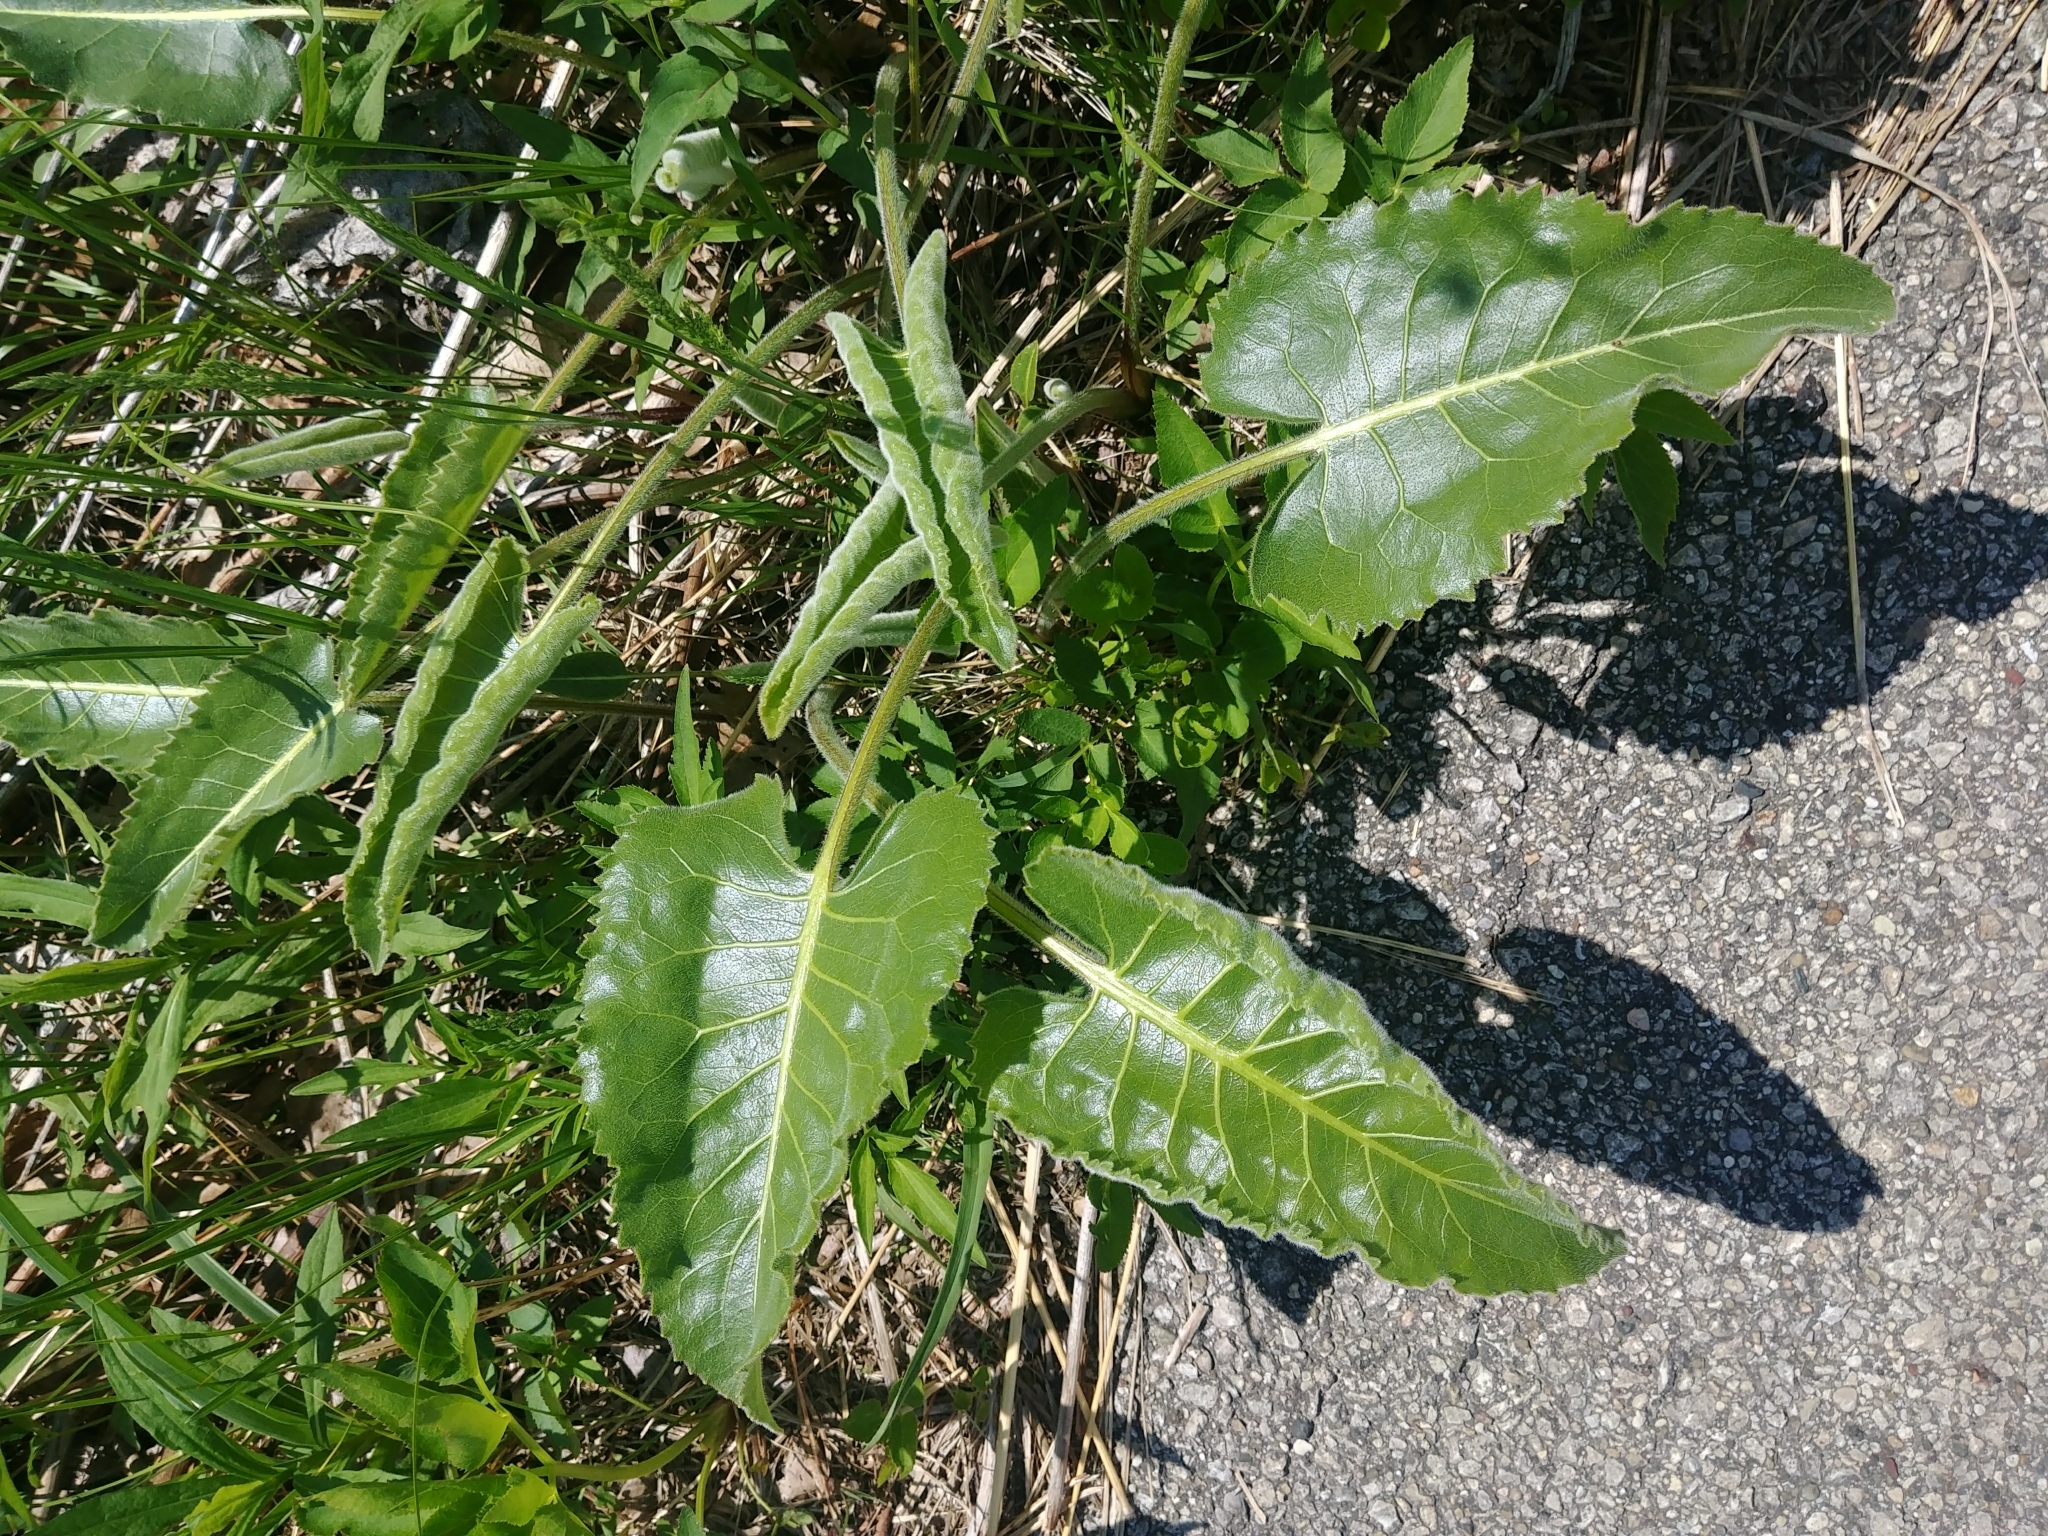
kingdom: Plantae
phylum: Tracheophyta
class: Magnoliopsida
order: Asterales
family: Asteraceae
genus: Silphium
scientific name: Silphium terebinthinaceum
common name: Basal-leaf rosinweed
